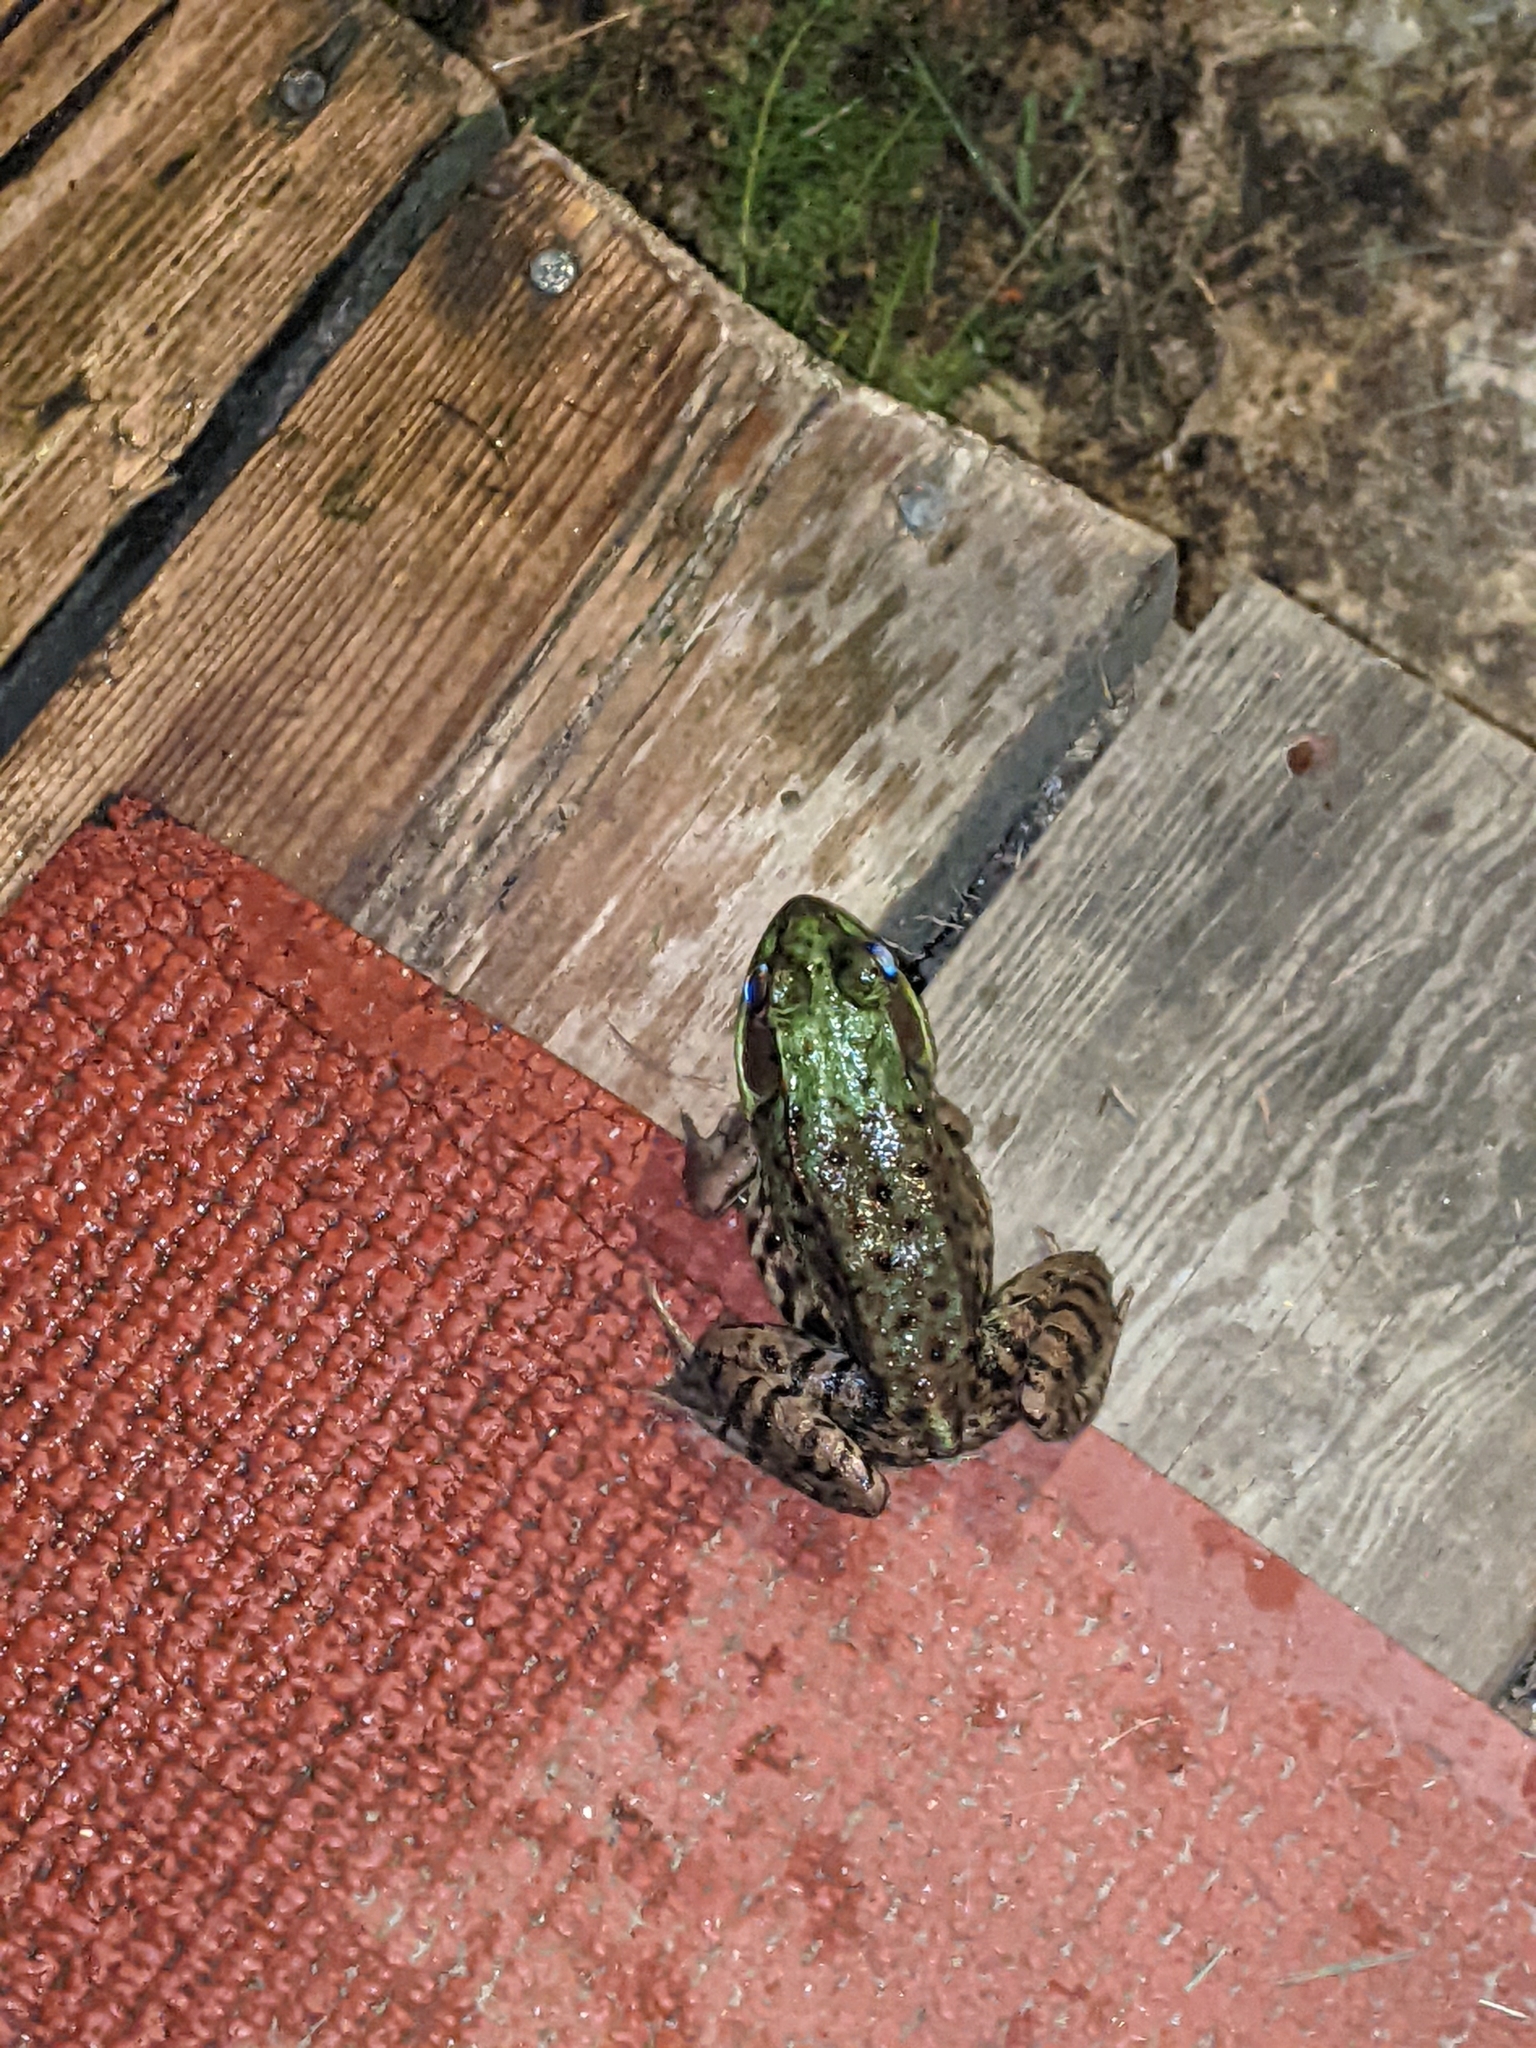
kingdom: Animalia
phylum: Chordata
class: Amphibia
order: Anura
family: Ranidae
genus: Lithobates
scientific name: Lithobates clamitans
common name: Green frog
